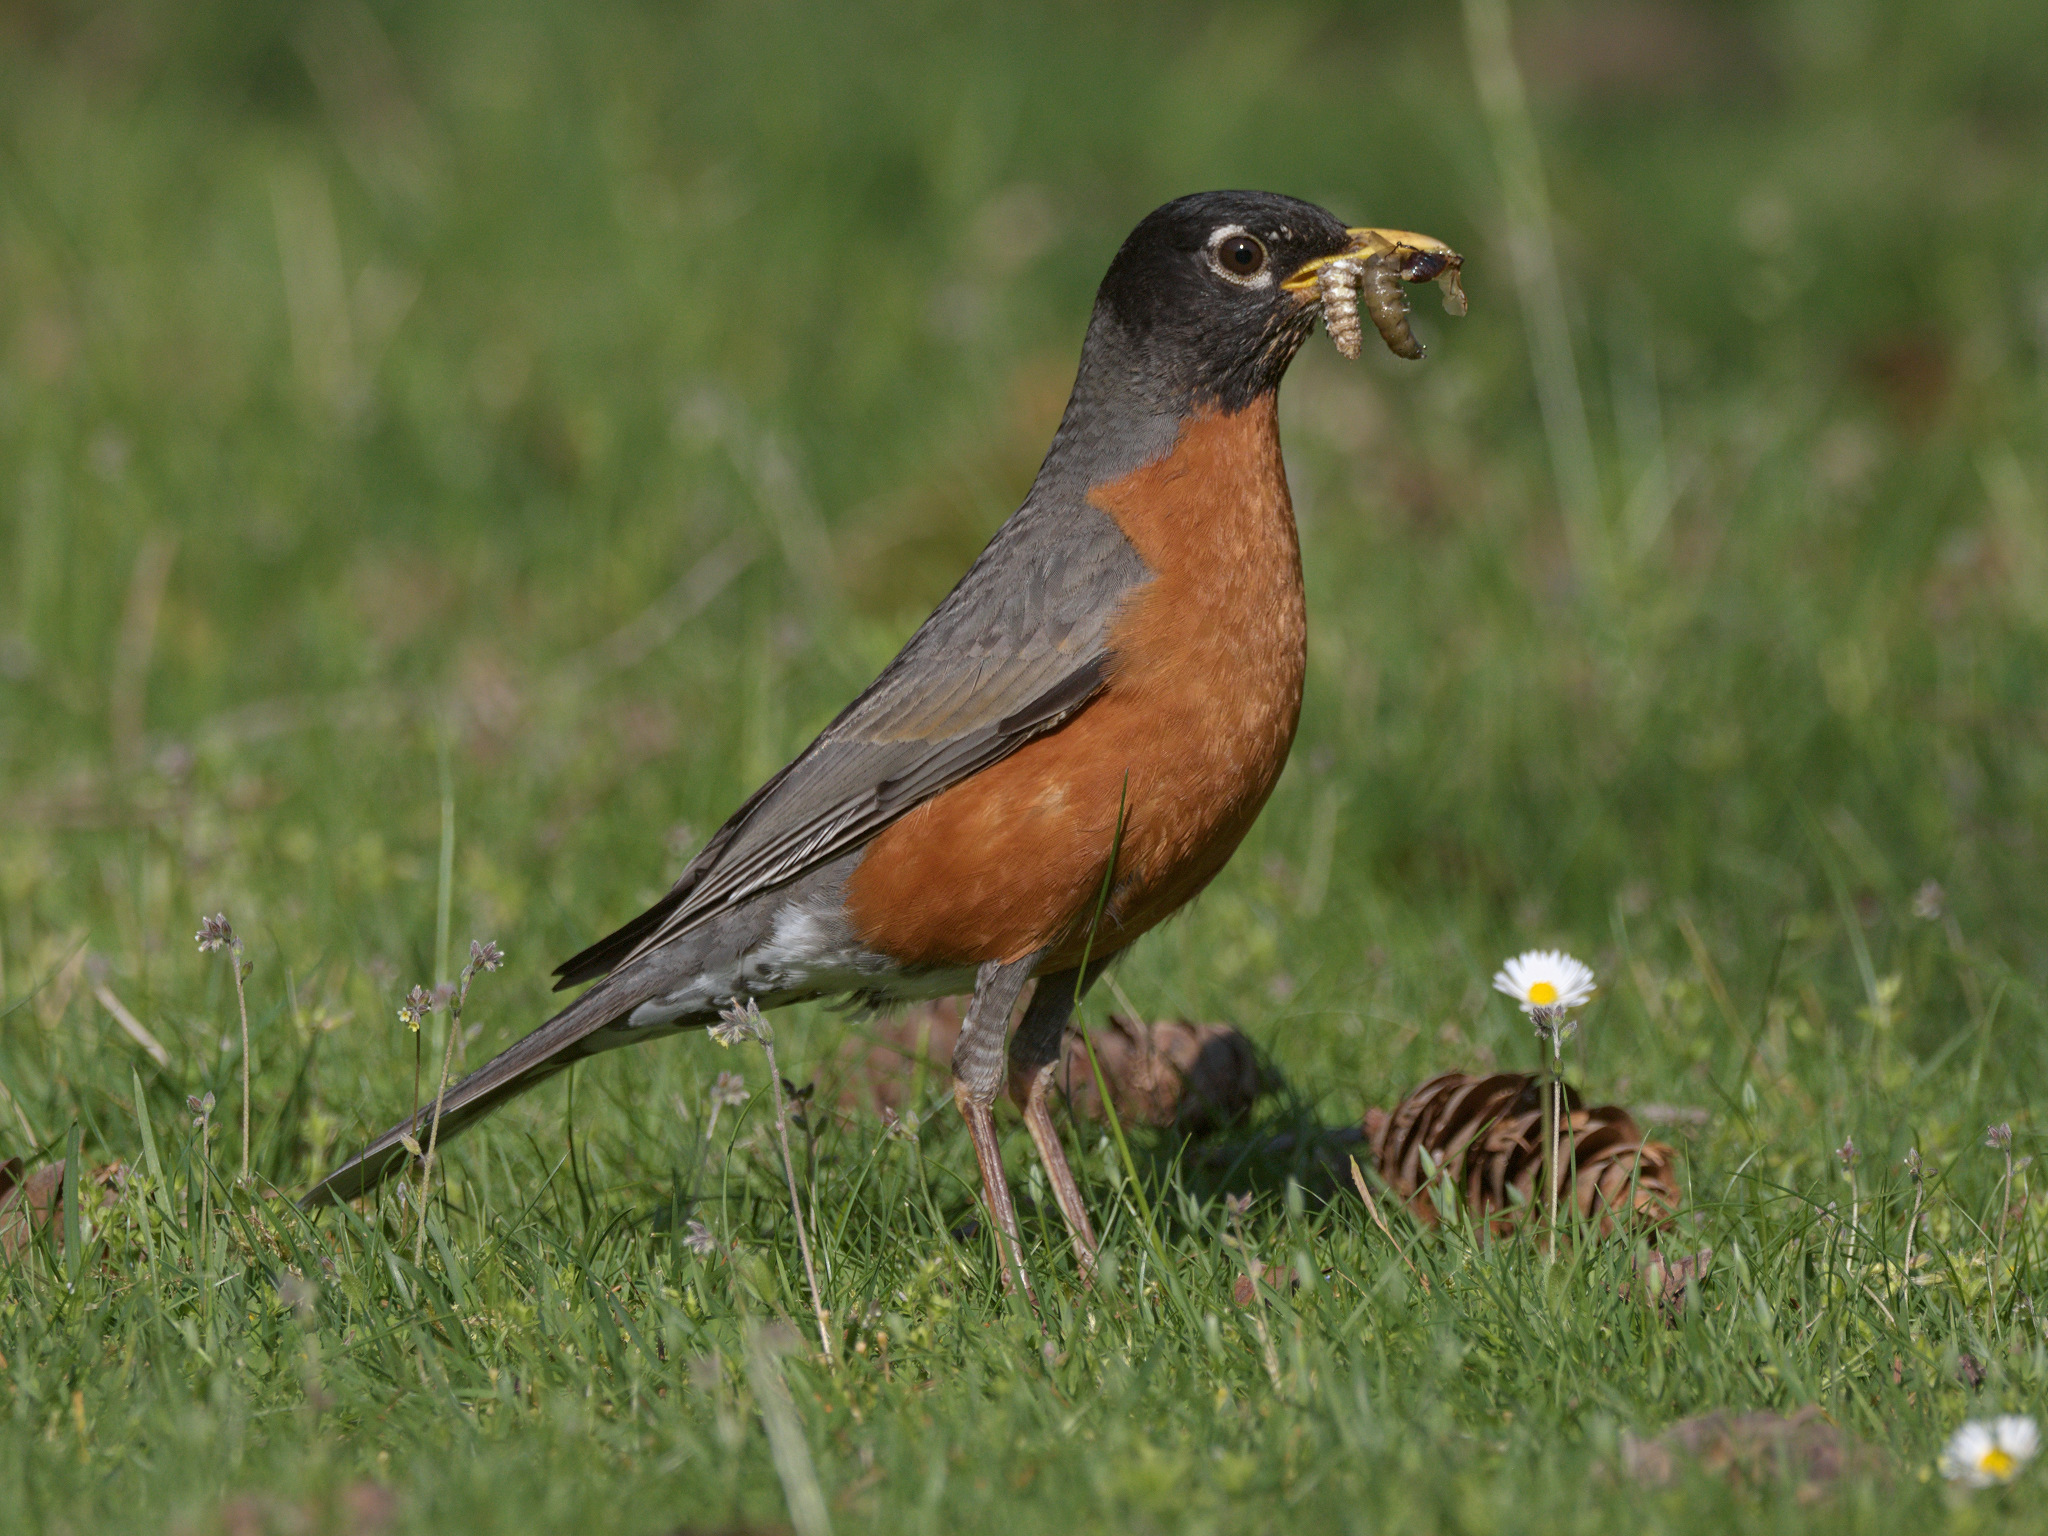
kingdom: Animalia
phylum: Chordata
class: Aves
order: Passeriformes
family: Turdidae
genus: Turdus
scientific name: Turdus migratorius
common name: American robin
